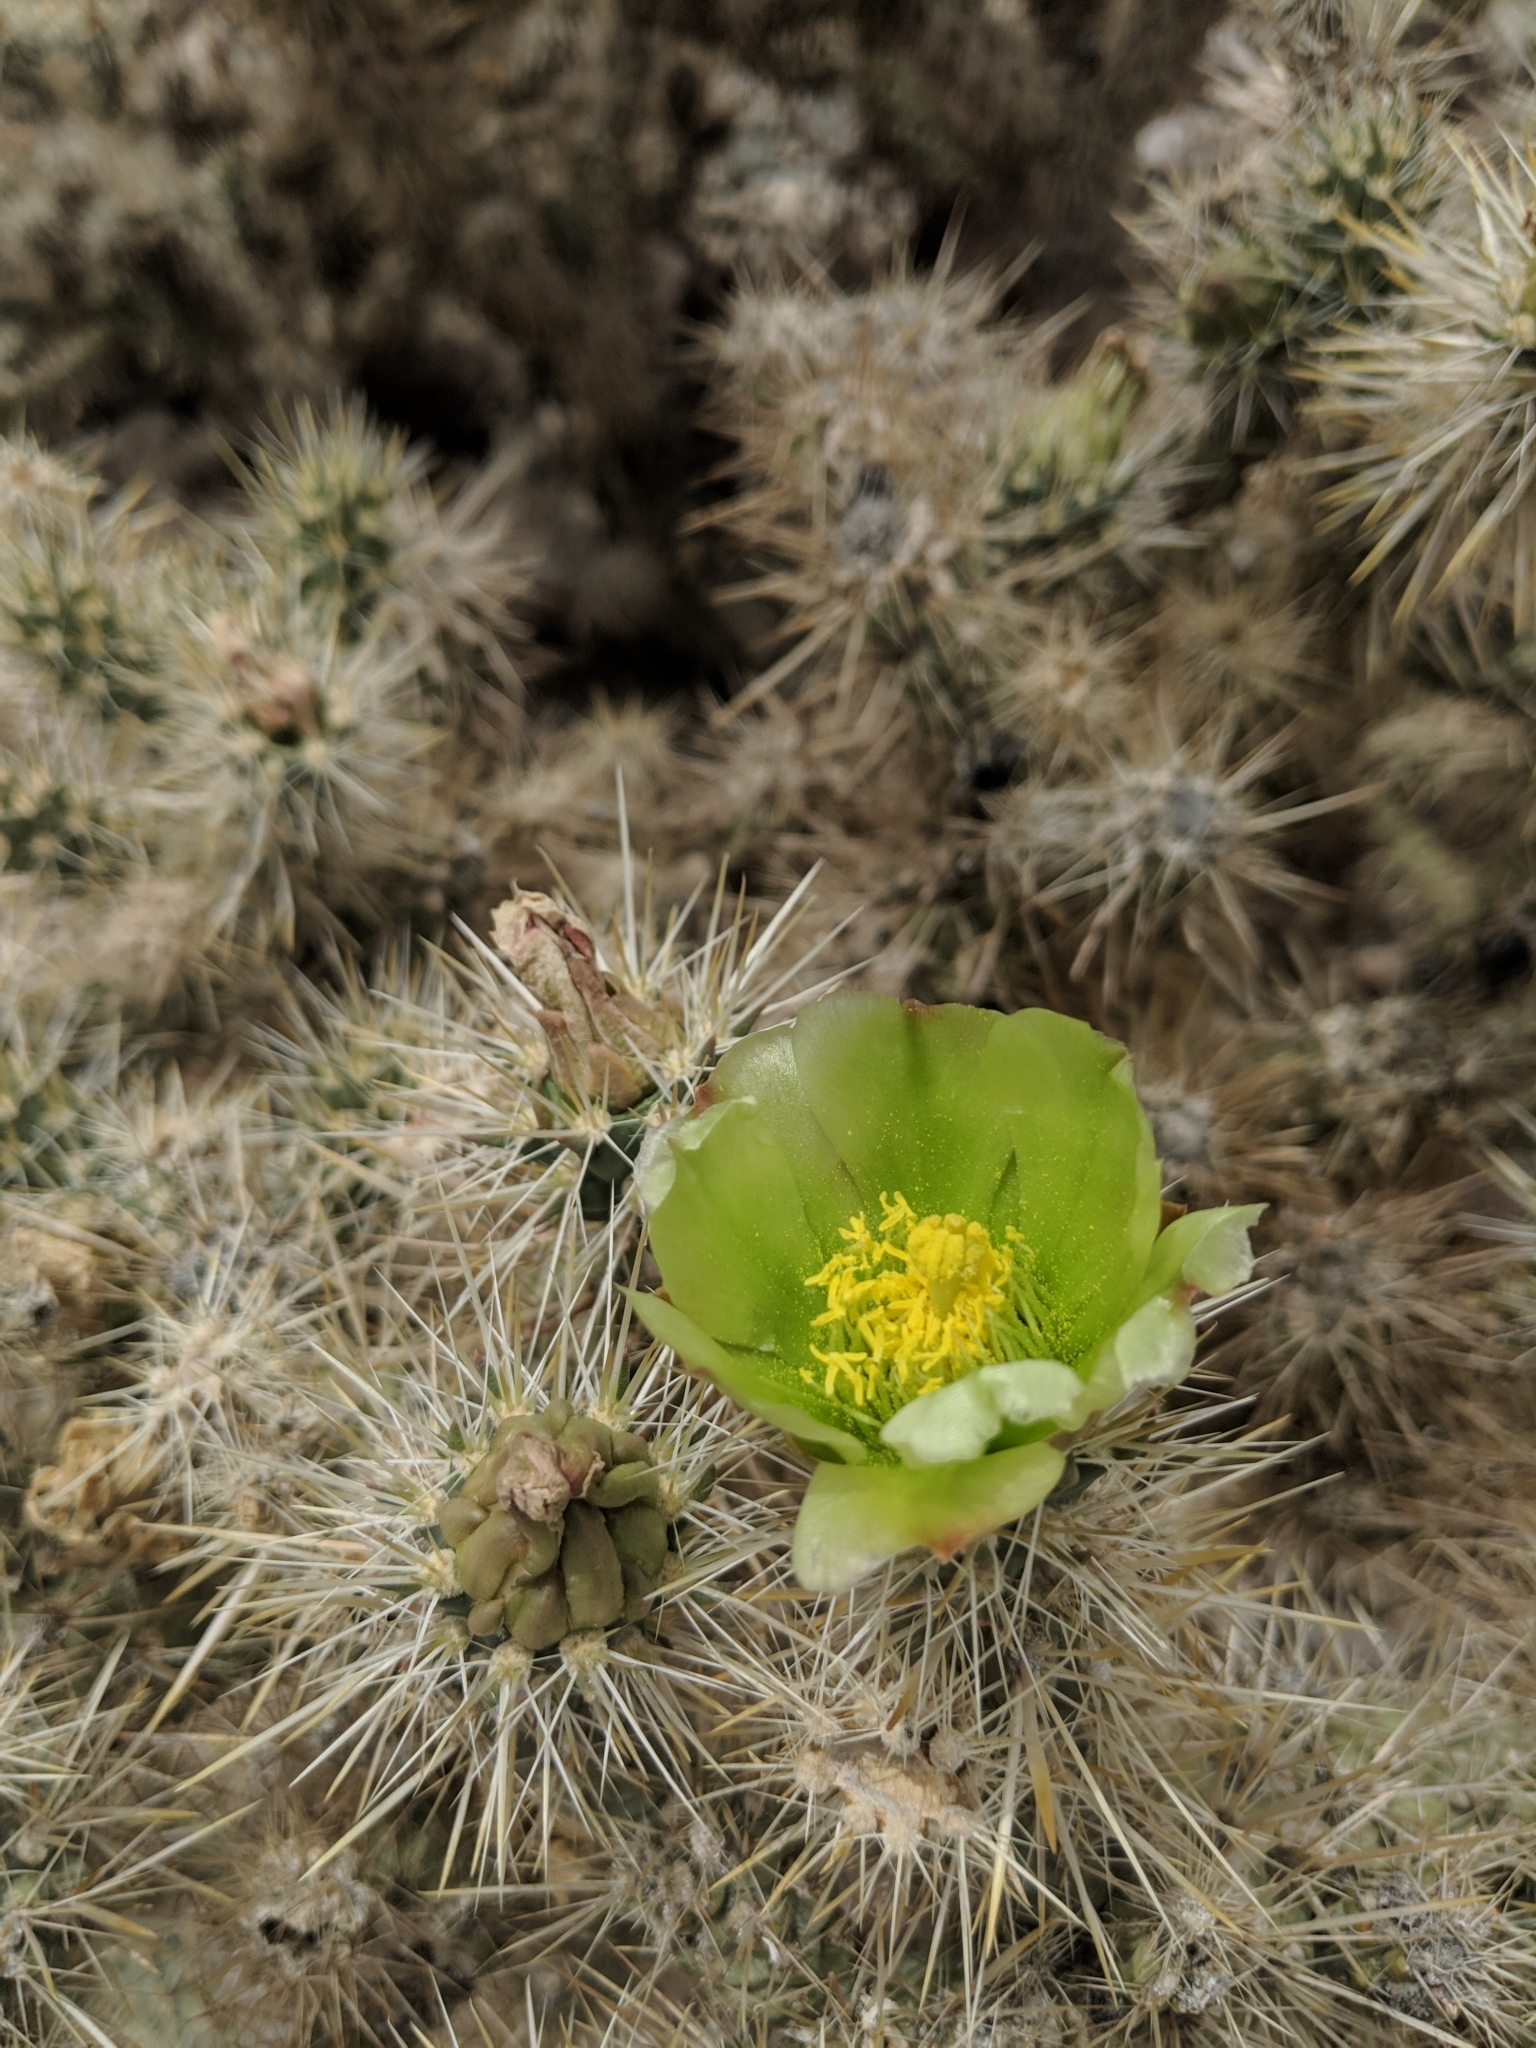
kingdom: Plantae
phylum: Tracheophyta
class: Magnoliopsida
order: Caryophyllales
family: Cactaceae
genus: Cylindropuntia
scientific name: Cylindropuntia echinocarpa
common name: Ground cholla
